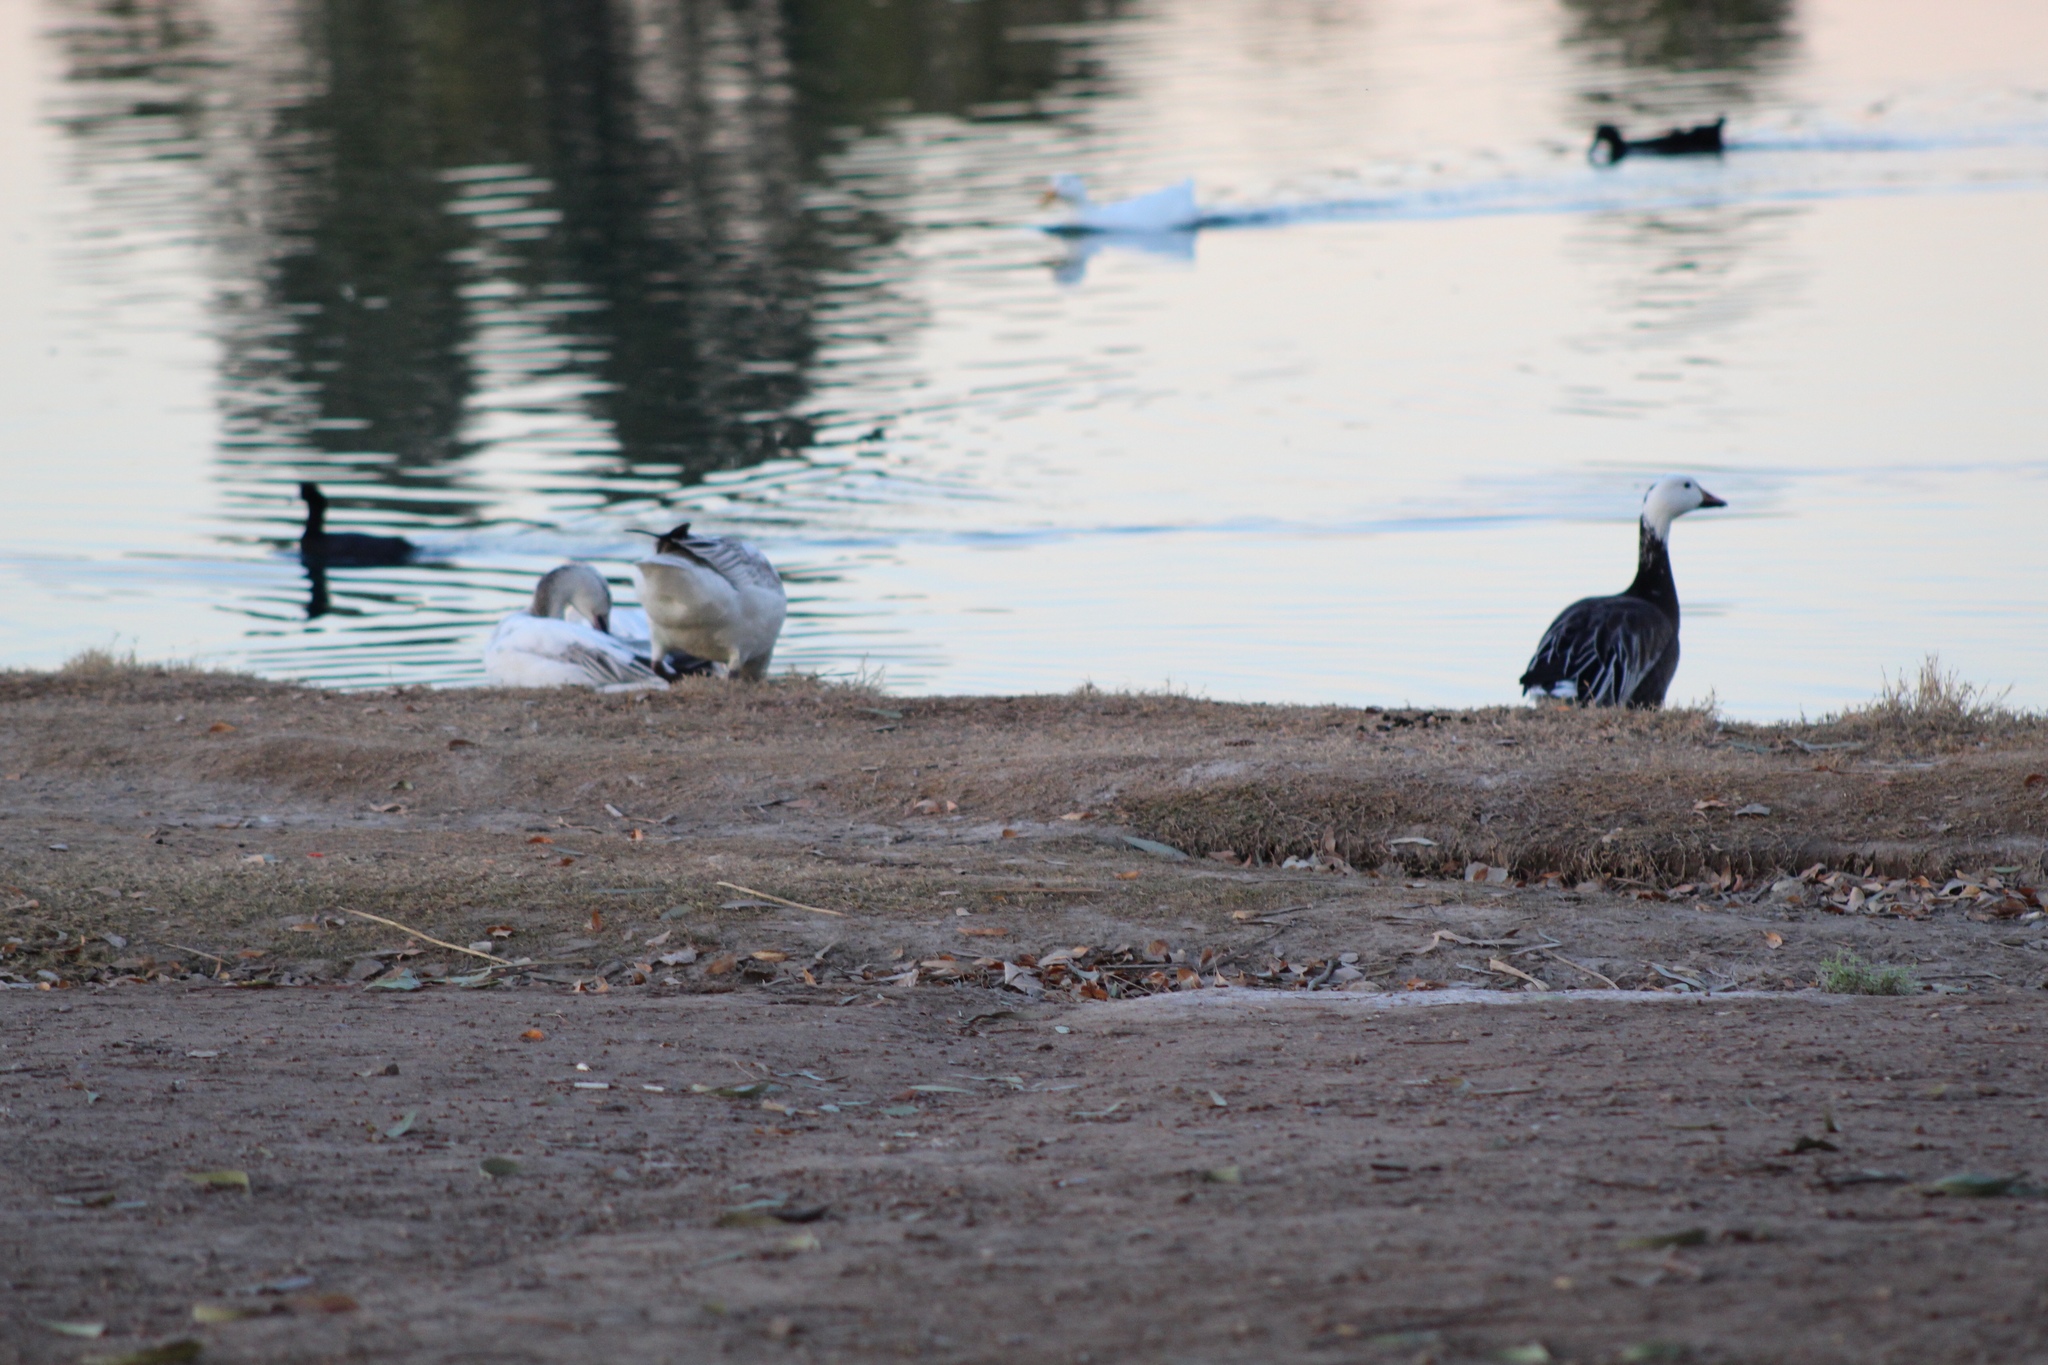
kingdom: Animalia
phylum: Chordata
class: Aves
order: Anseriformes
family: Anatidae
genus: Anser
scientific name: Anser caerulescens
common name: Snow goose
